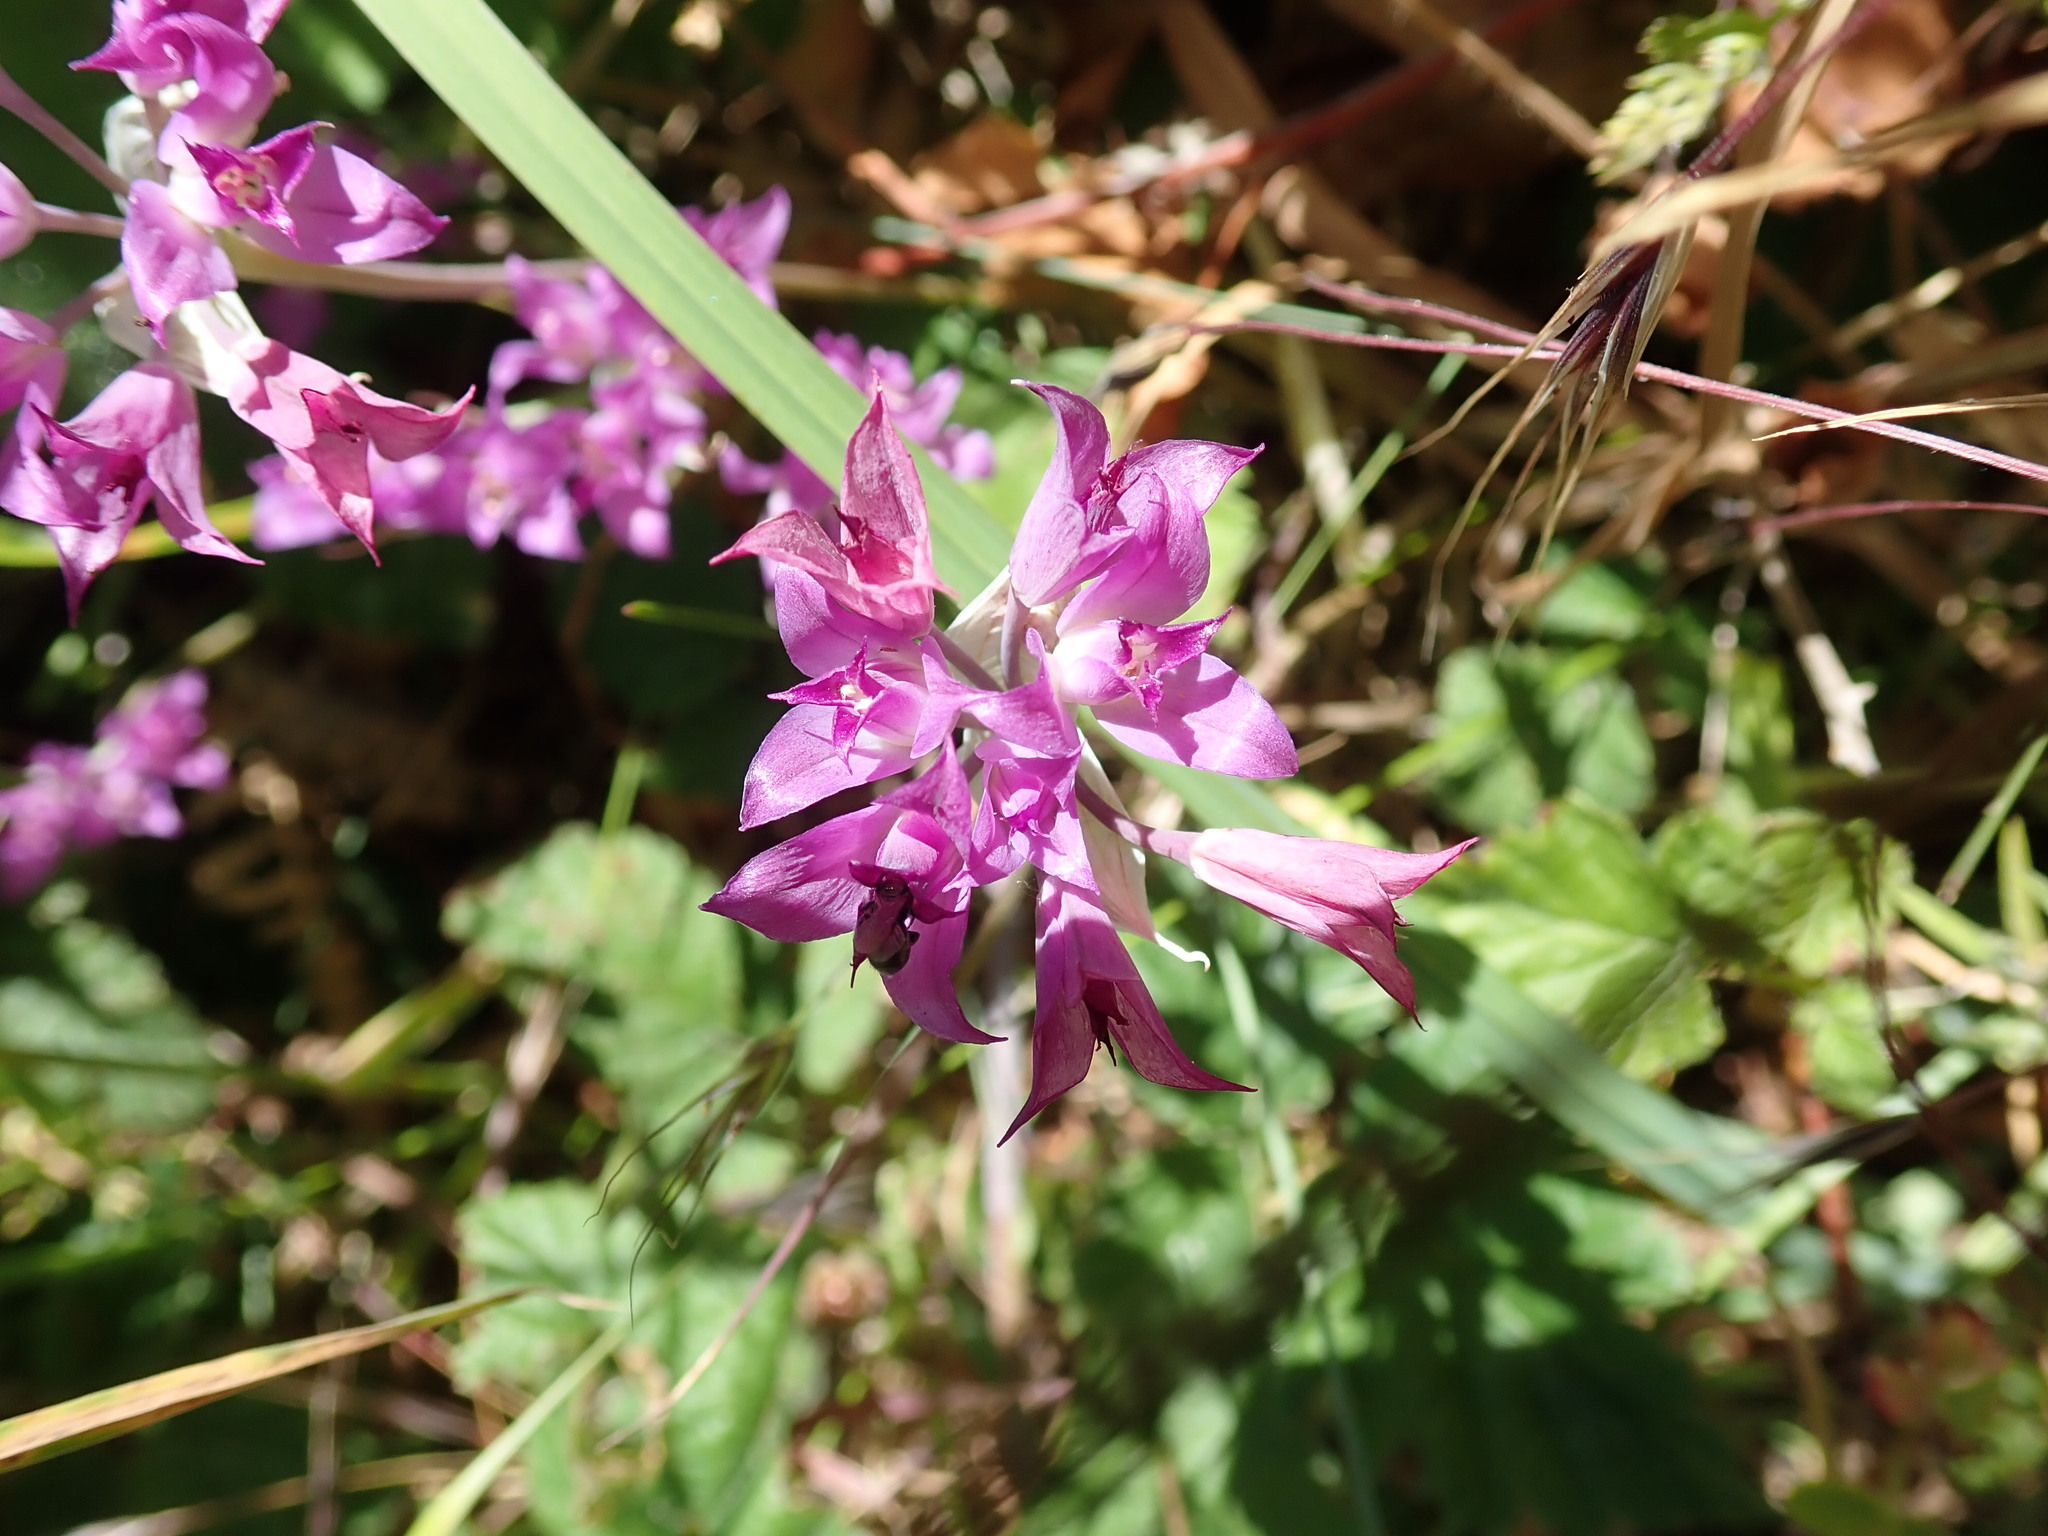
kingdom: Plantae
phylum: Tracheophyta
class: Liliopsida
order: Asparagales
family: Amaryllidaceae
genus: Allium
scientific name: Allium acuminatum
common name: Hooker's onion
